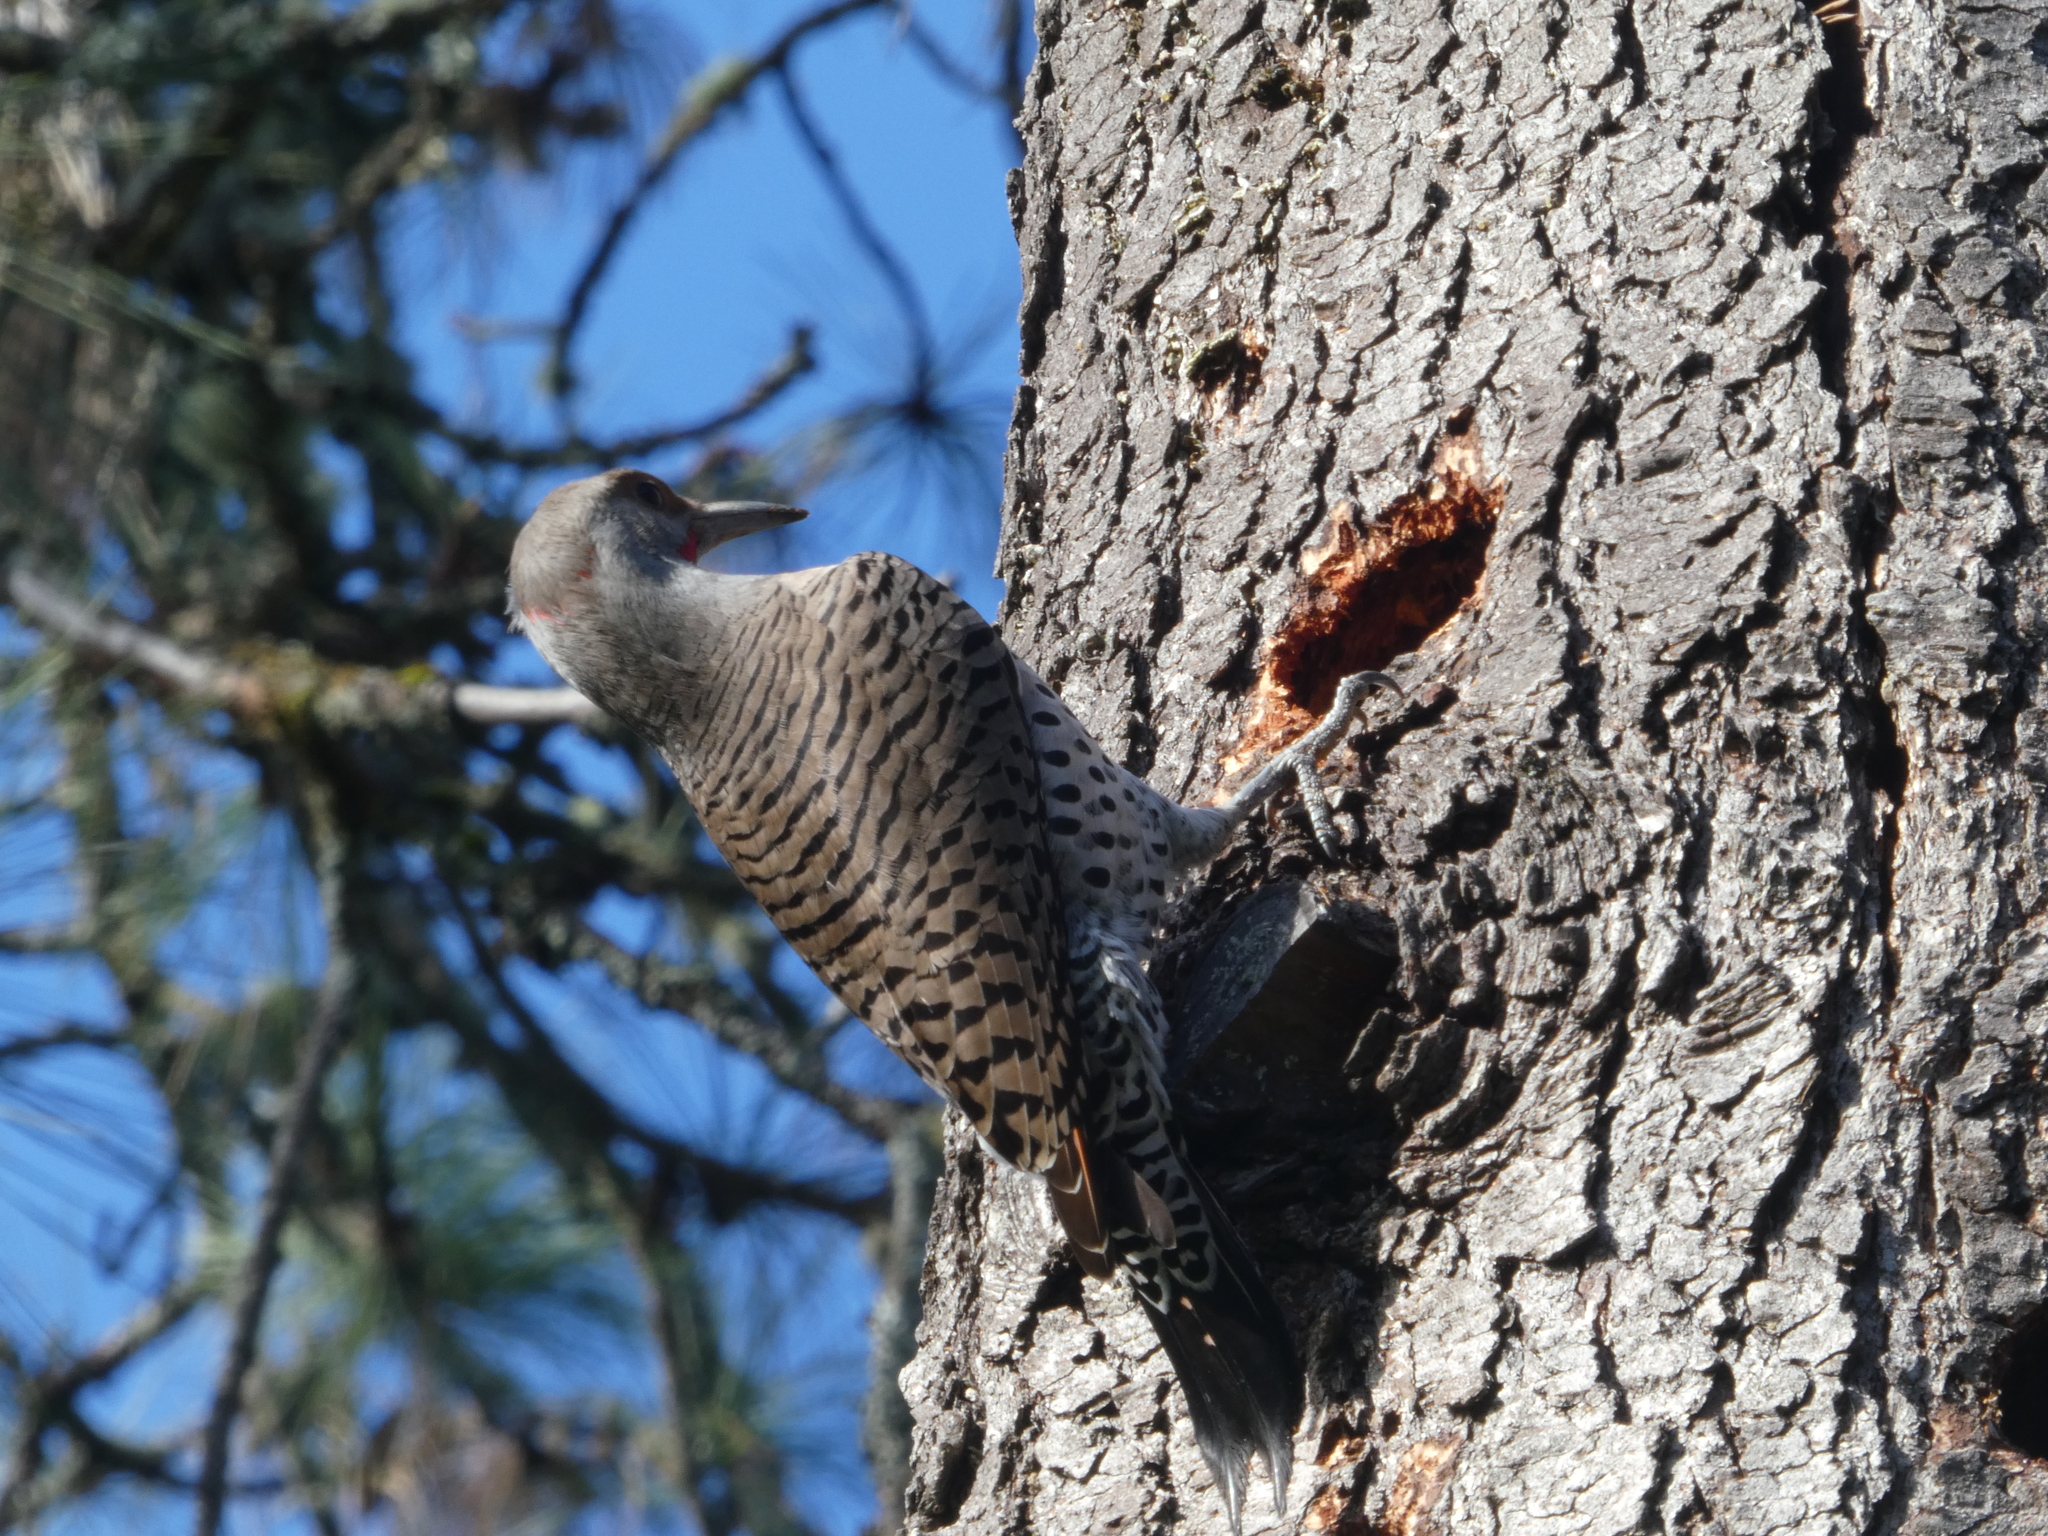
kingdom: Animalia
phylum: Chordata
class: Aves
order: Piciformes
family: Picidae
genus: Colaptes
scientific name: Colaptes auratus
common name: Northern flicker
